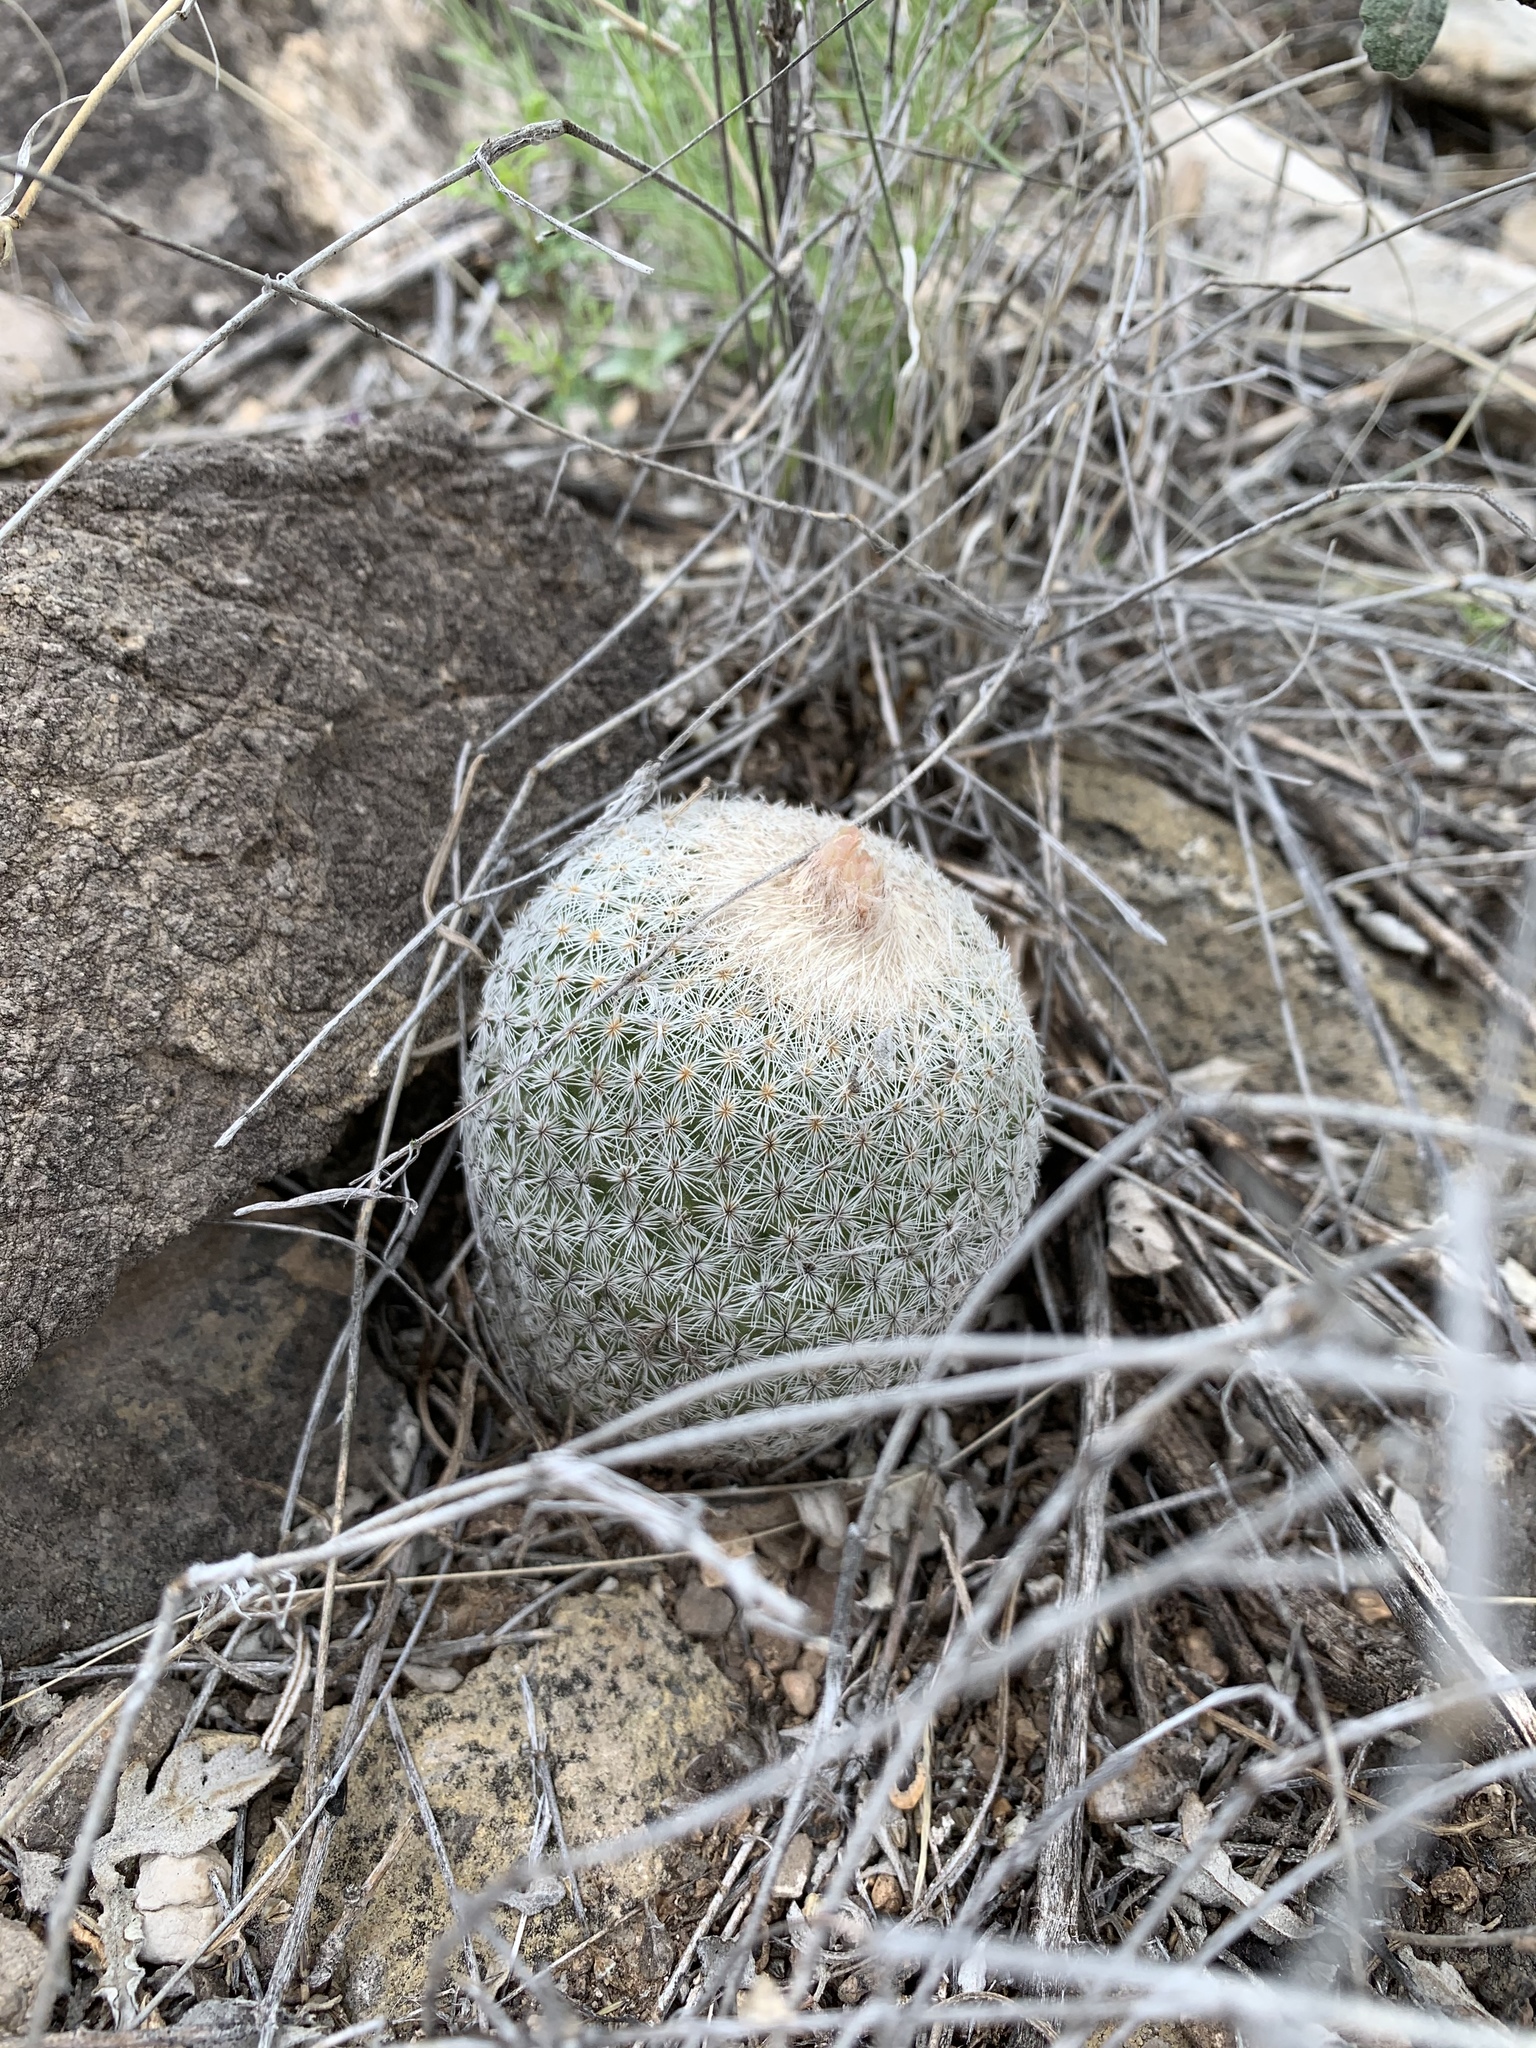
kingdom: Plantae
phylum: Tracheophyta
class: Magnoliopsida
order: Caryophyllales
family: Cactaceae
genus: Epithelantha
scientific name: Epithelantha micromeris
